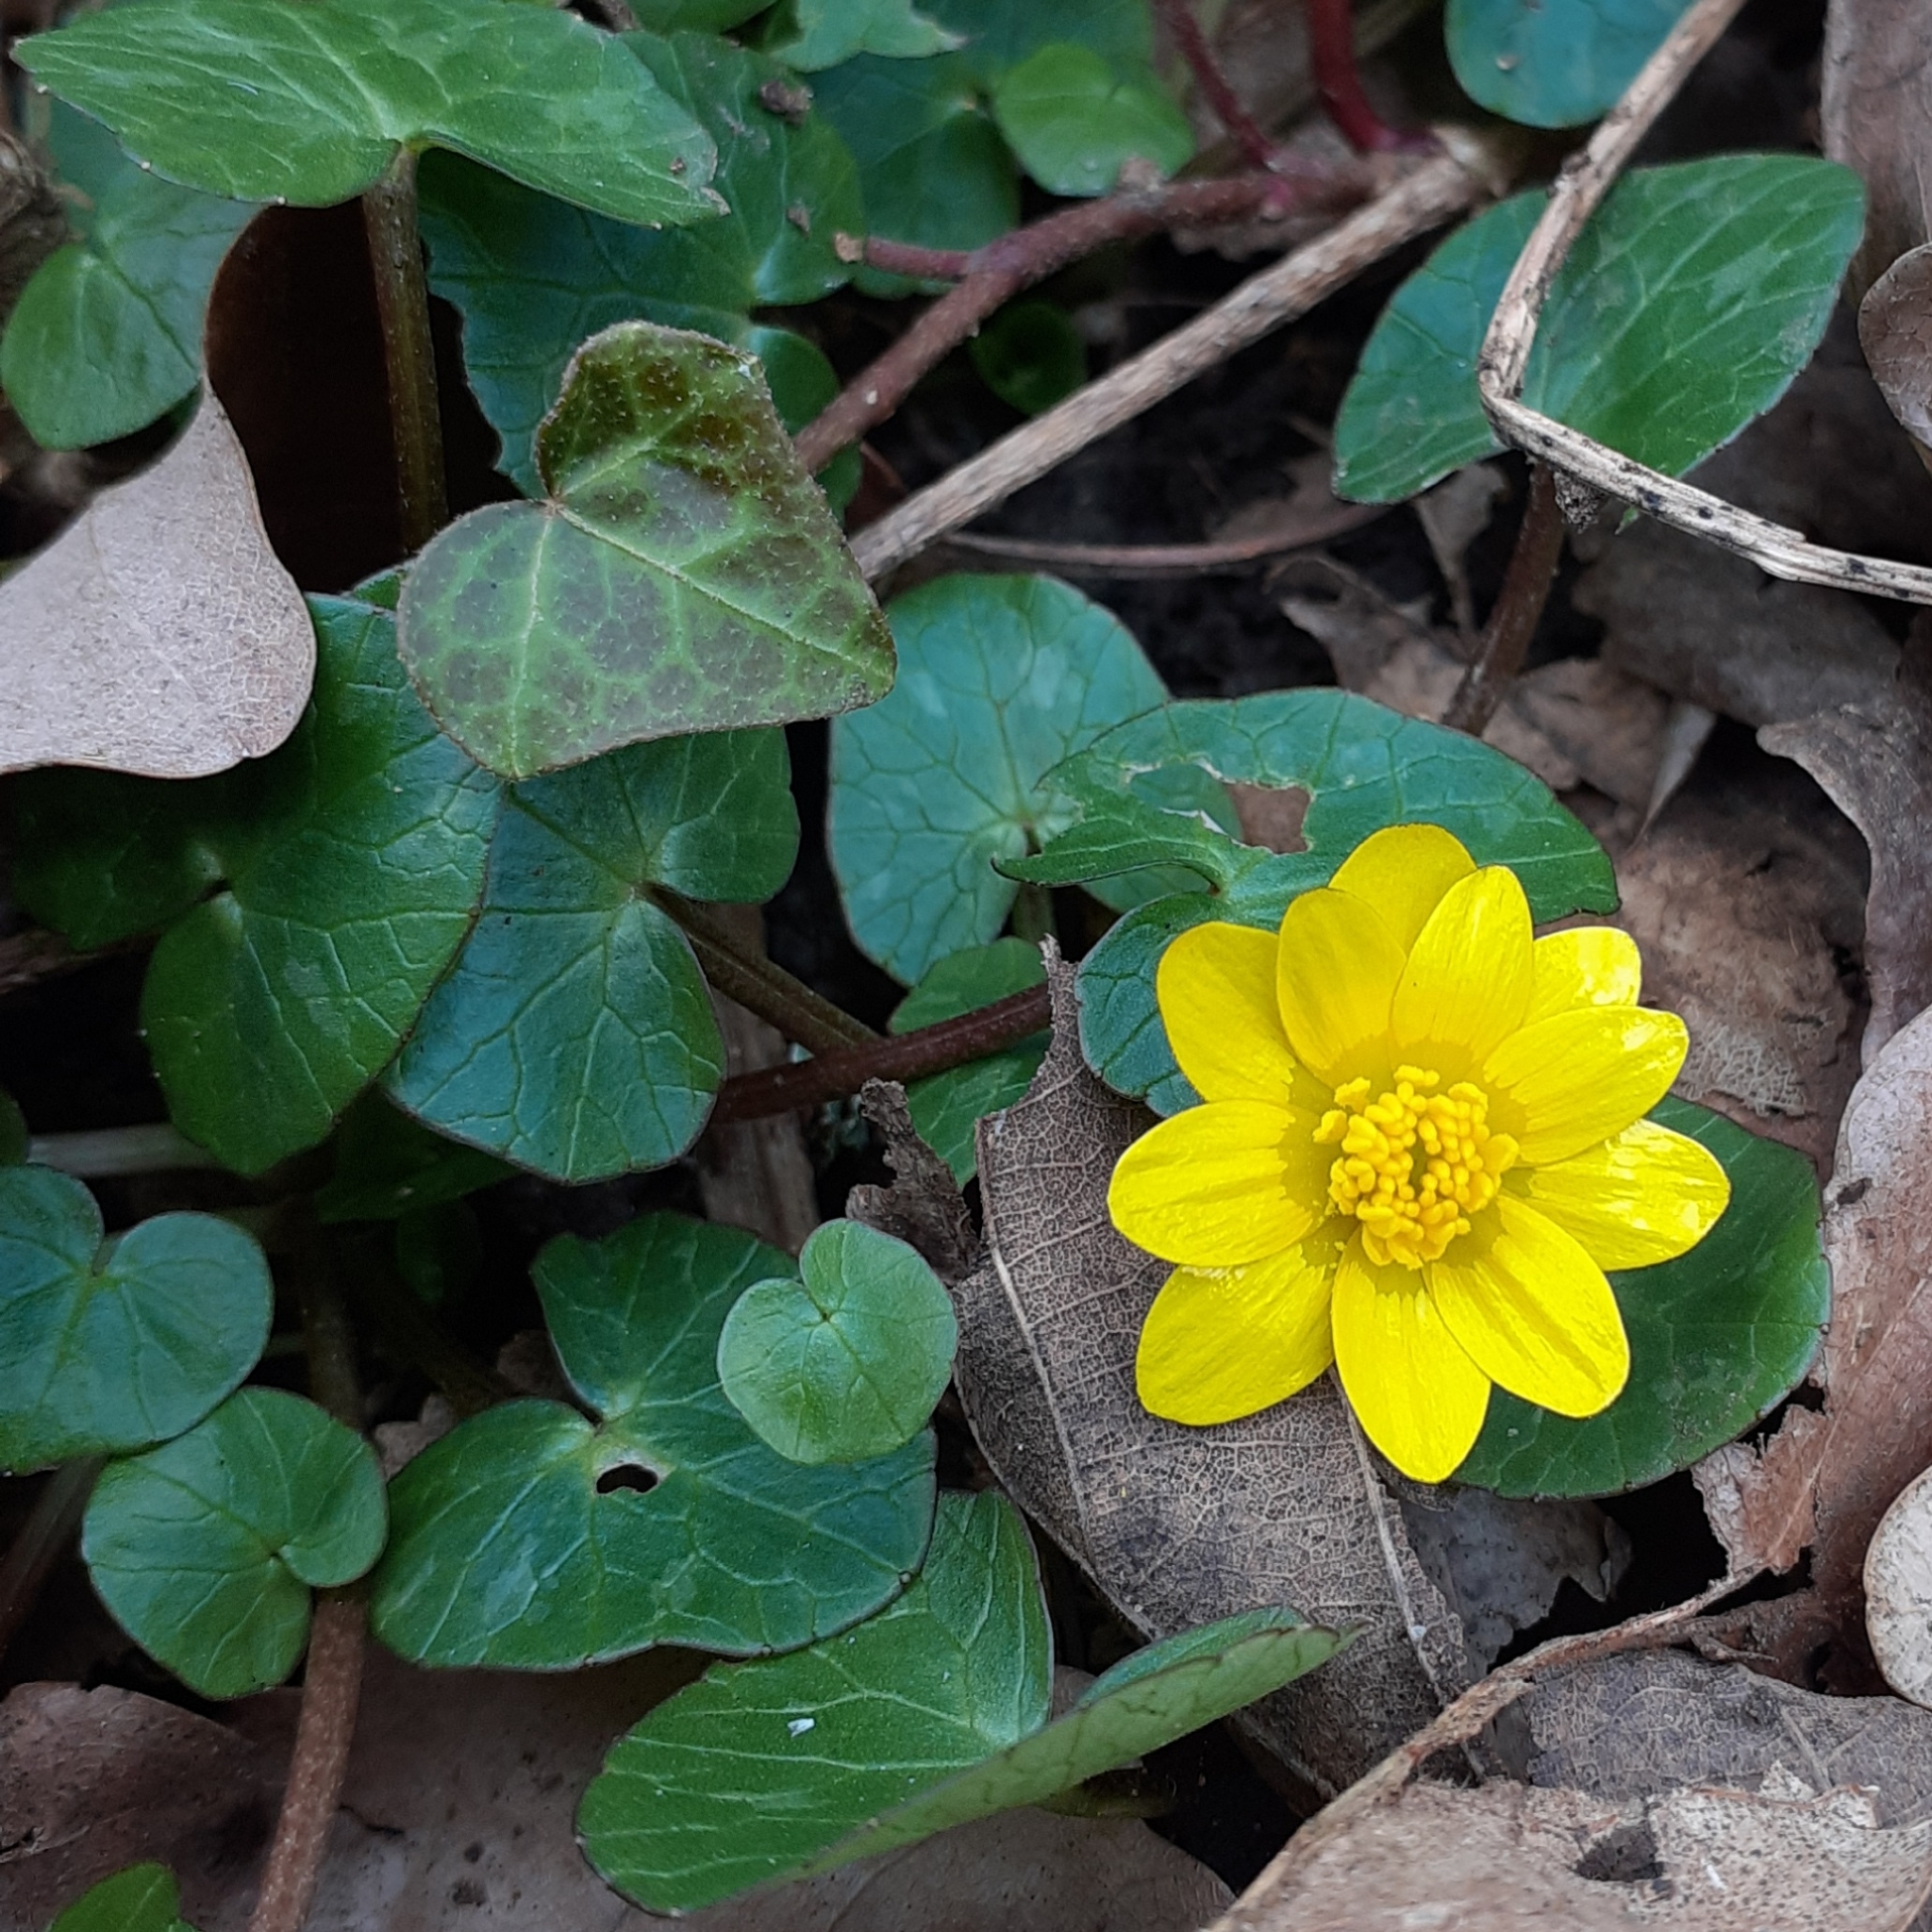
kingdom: Plantae
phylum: Tracheophyta
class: Magnoliopsida
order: Ranunculales
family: Ranunculaceae
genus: Ficaria
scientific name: Ficaria verna
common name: Lesser celandine
